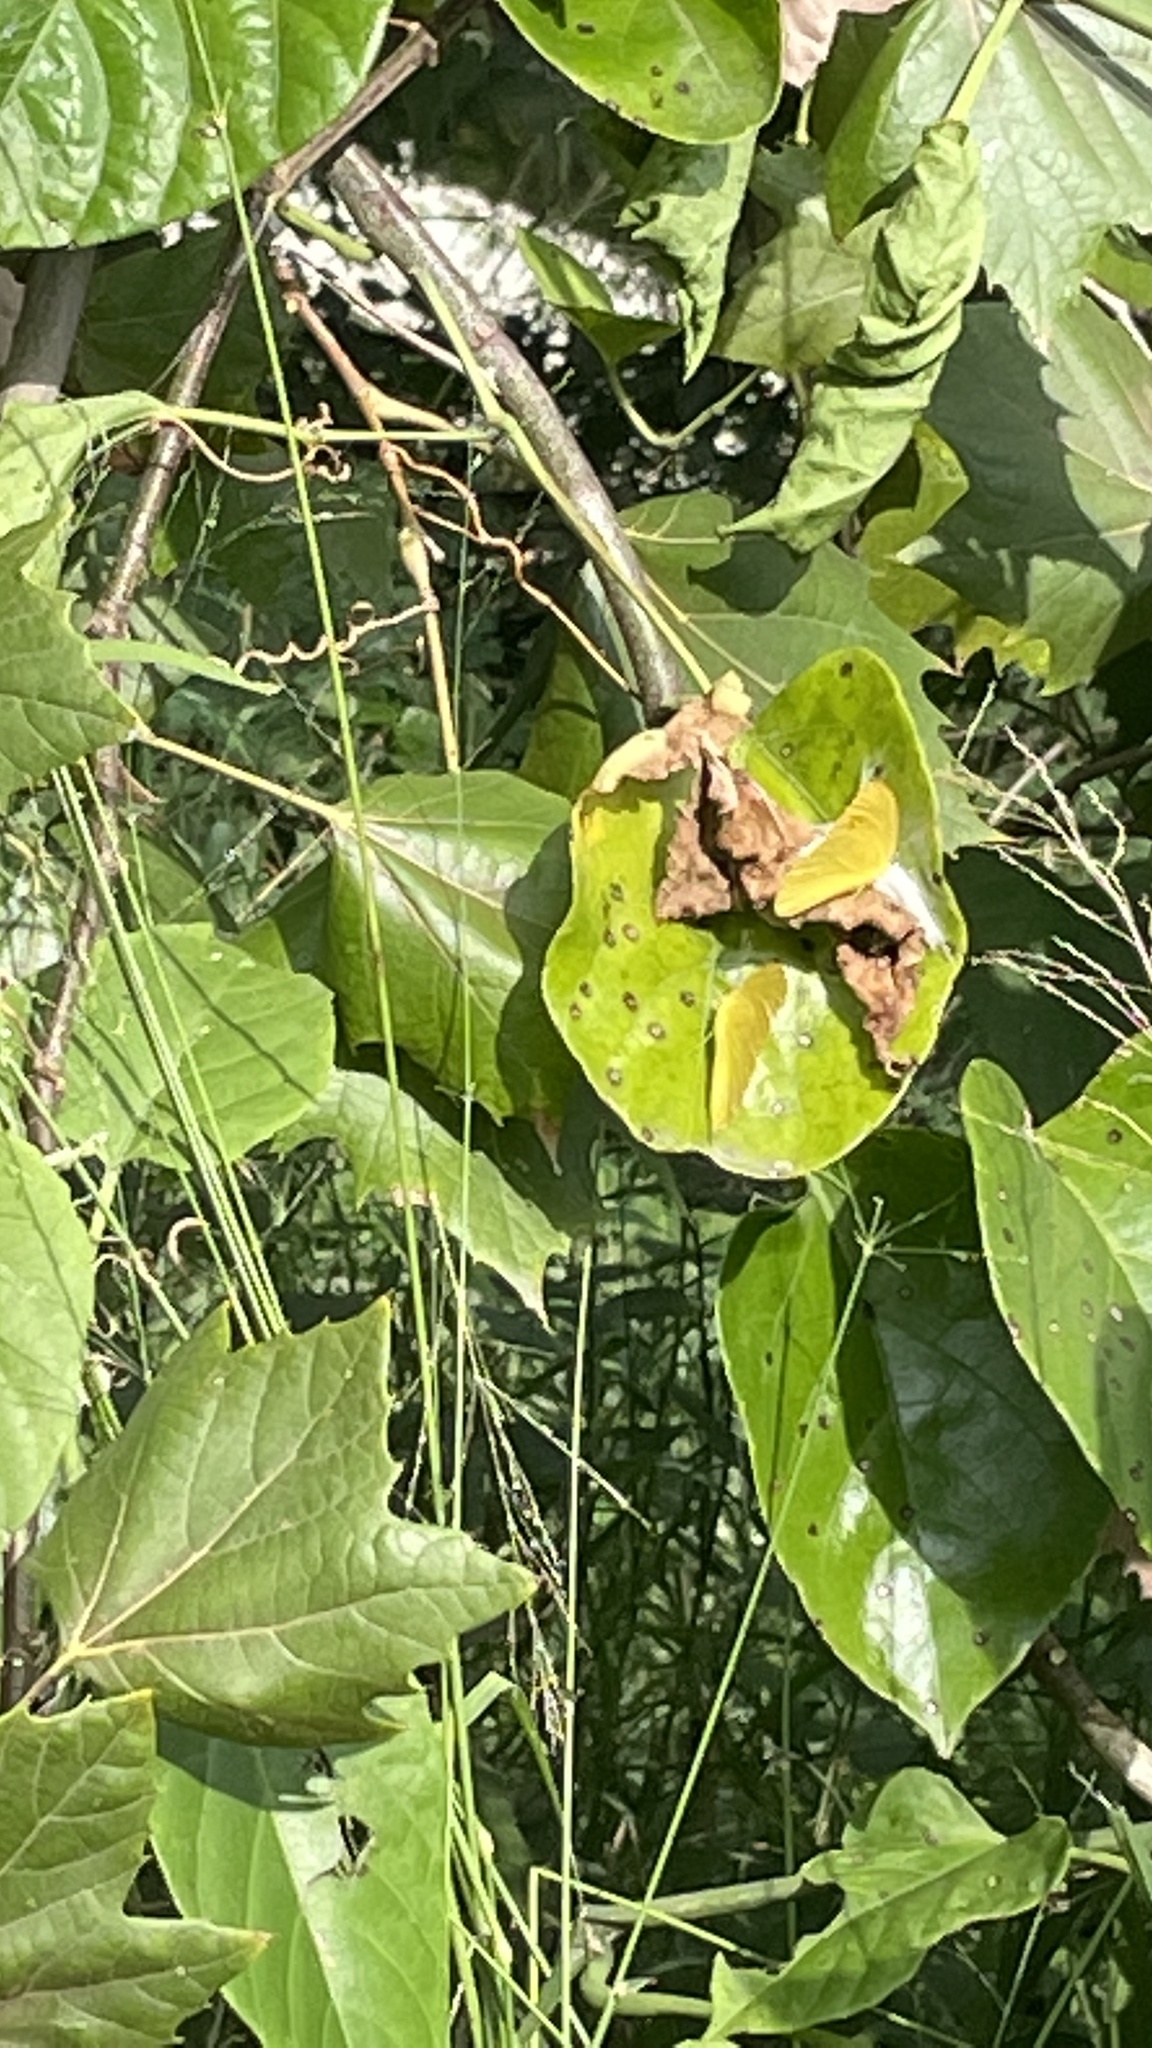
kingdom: Animalia
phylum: Arthropoda
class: Insecta
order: Lepidoptera
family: Pieridae
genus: Phoebis
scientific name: Phoebis agarithe
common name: Large orange sulphur
